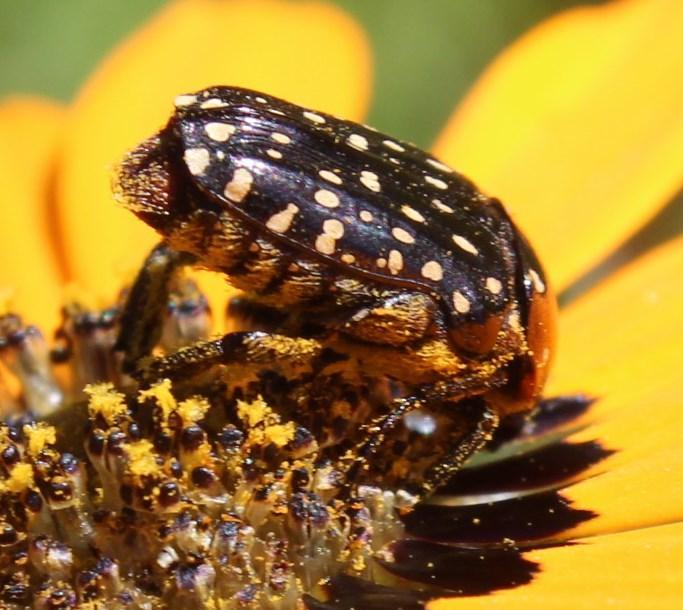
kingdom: Animalia
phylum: Arthropoda
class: Insecta
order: Coleoptera
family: Scarabaeidae
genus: Oxythyrea
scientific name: Oxythyrea
